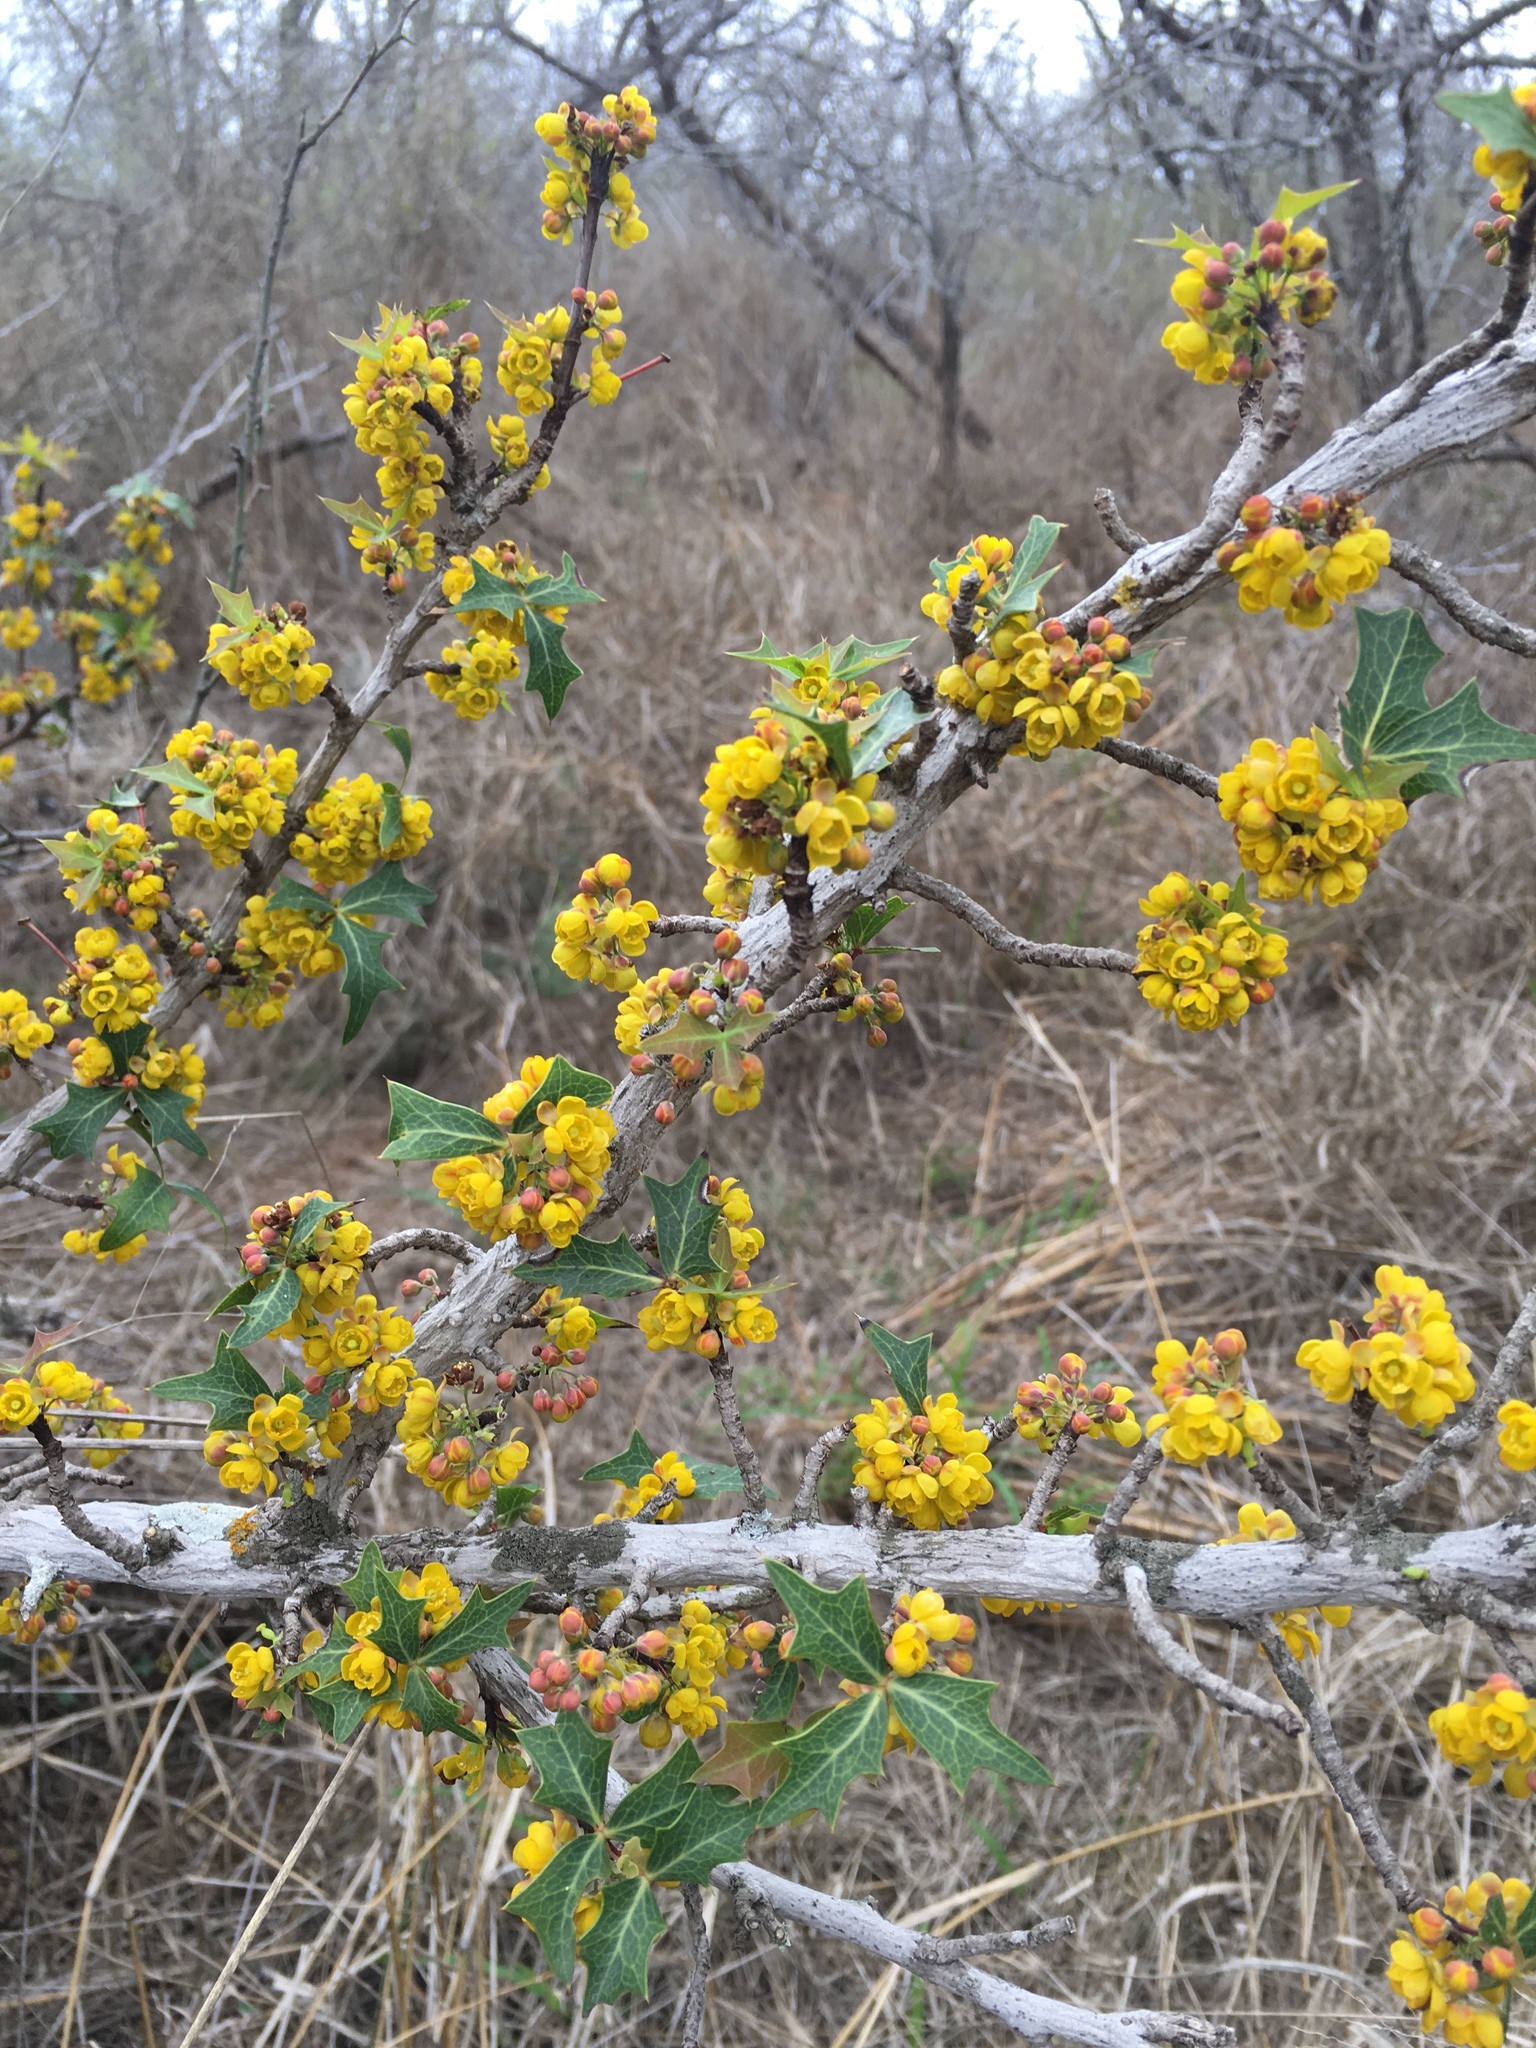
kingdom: Plantae
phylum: Tracheophyta
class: Magnoliopsida
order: Ranunculales
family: Berberidaceae
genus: Alloberberis
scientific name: Alloberberis trifoliolata
